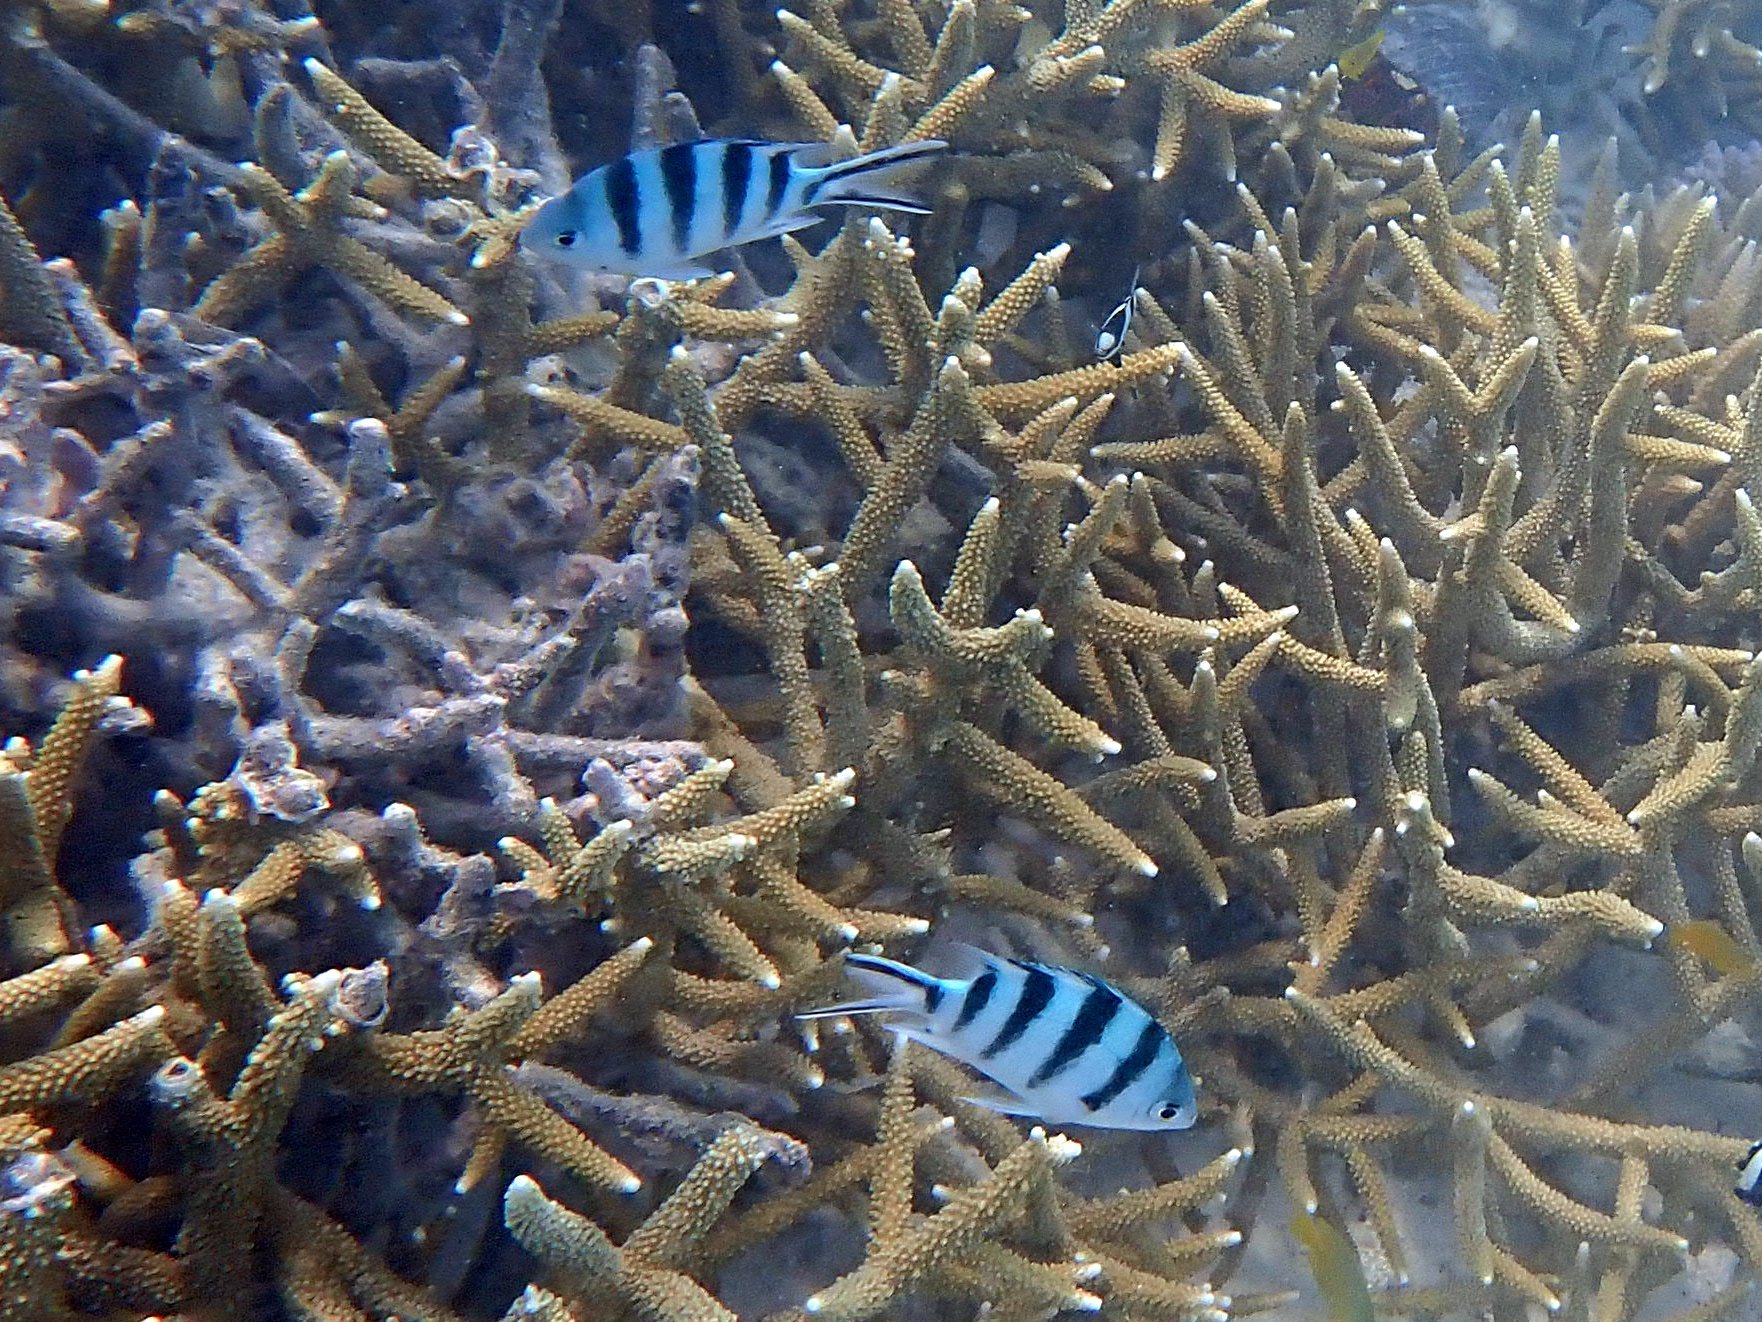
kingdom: Animalia
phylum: Chordata
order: Perciformes
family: Pomacentridae
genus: Abudefduf
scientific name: Abudefduf sexfasciatus
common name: Scissortail sergeant
